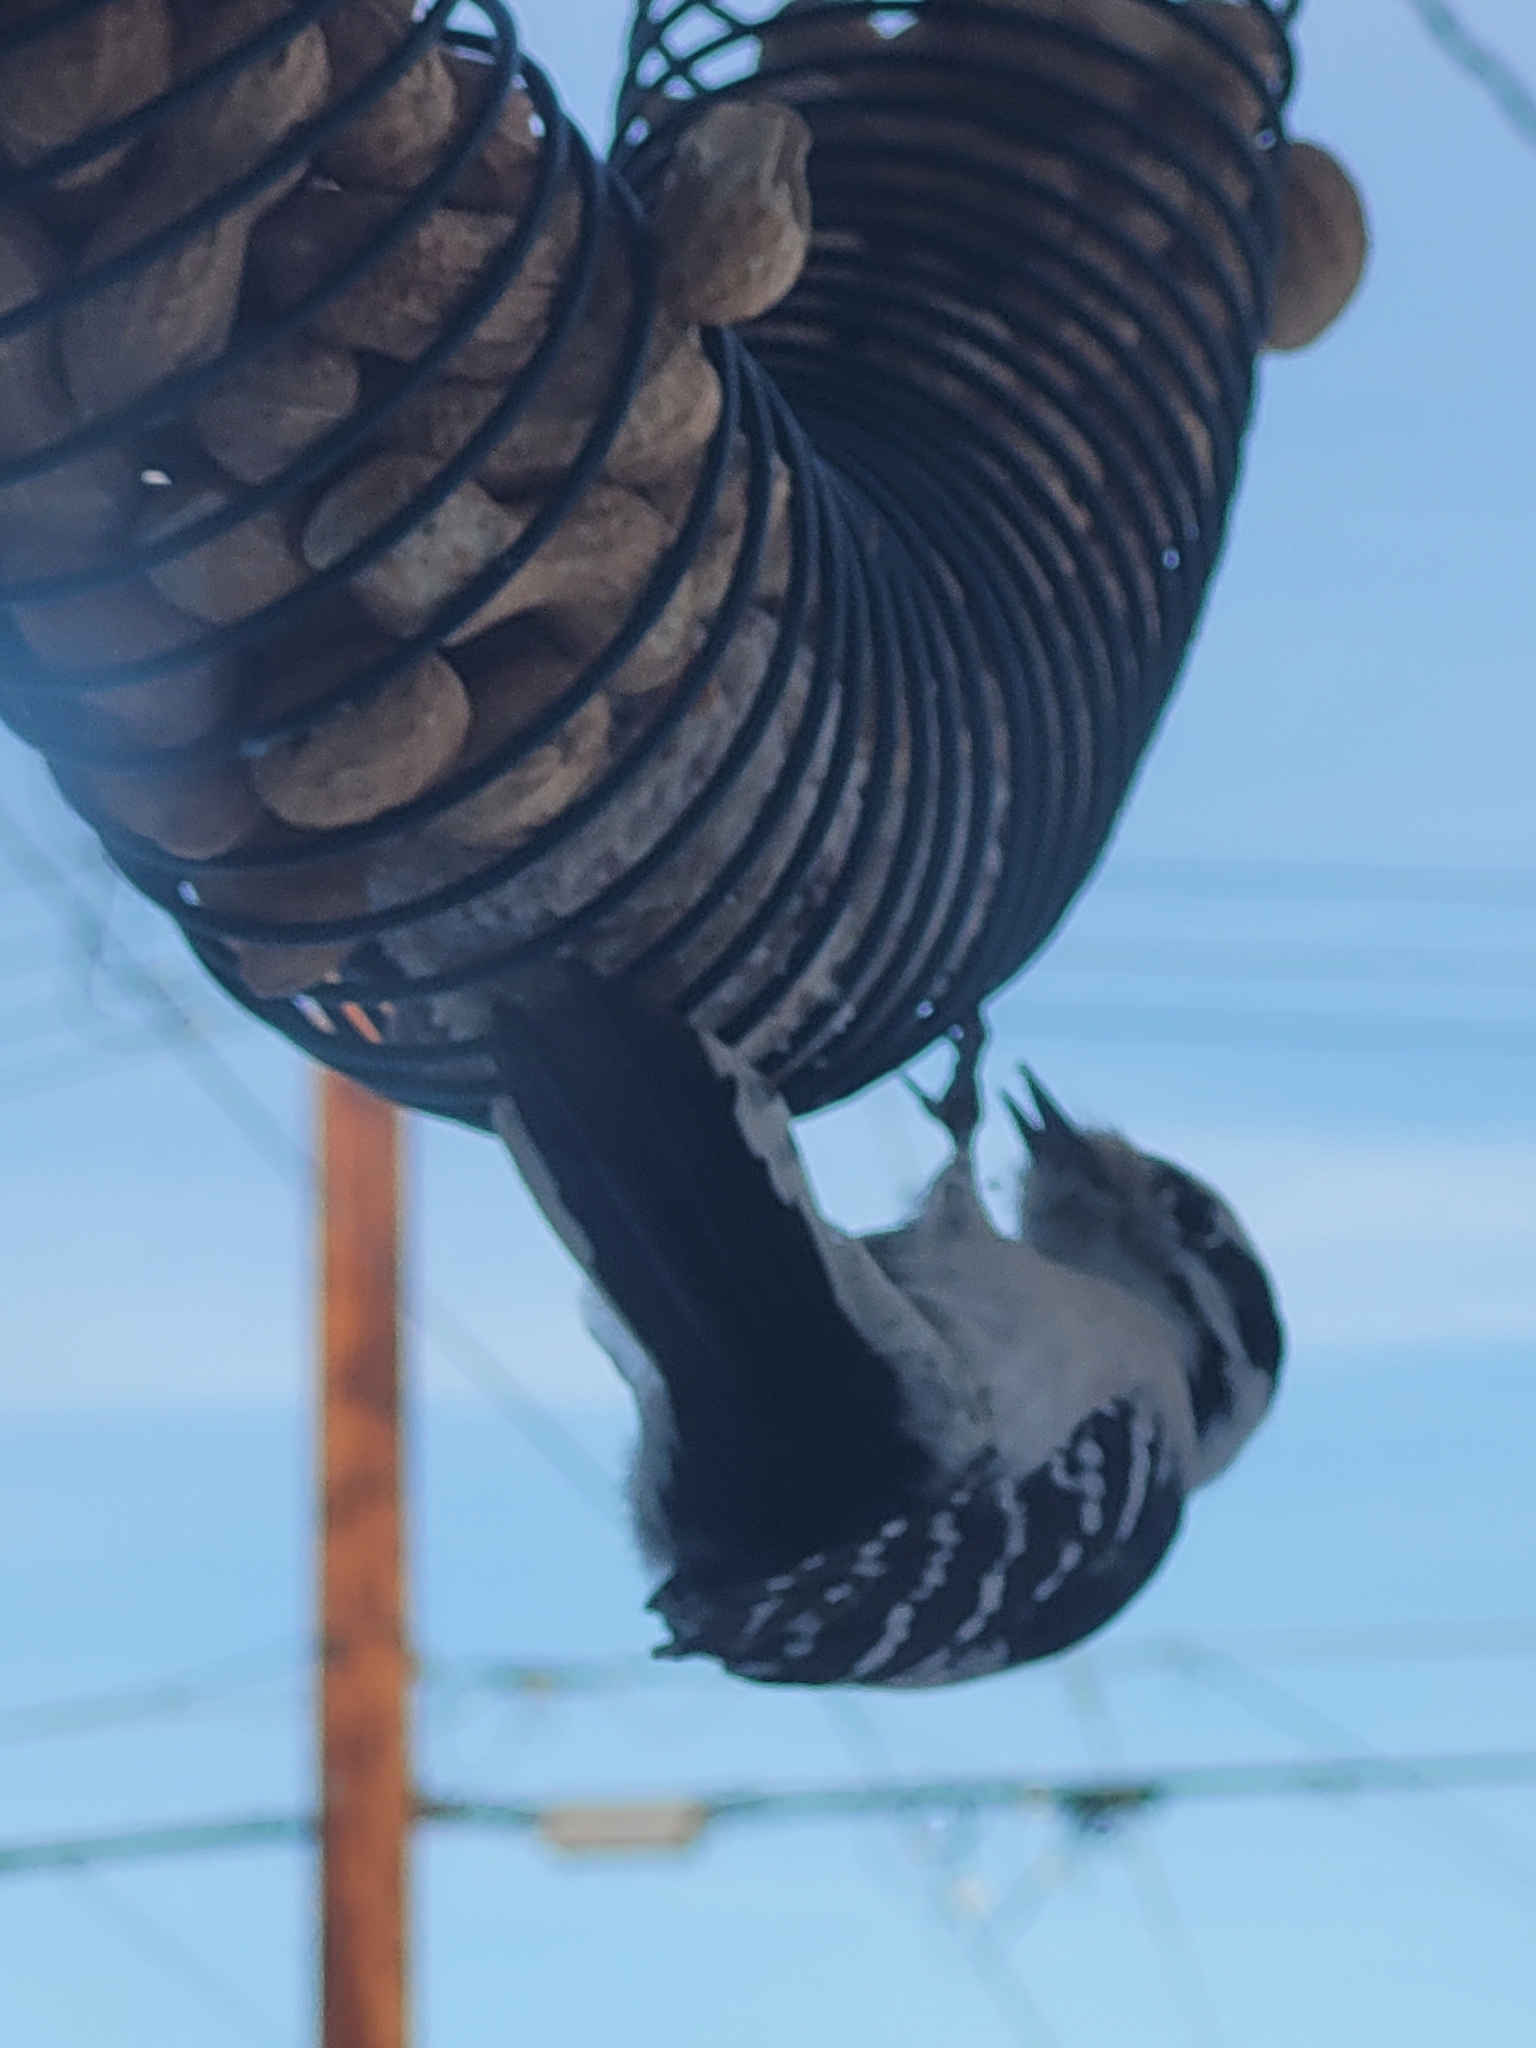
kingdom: Animalia
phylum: Chordata
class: Aves
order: Piciformes
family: Picidae
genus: Dryobates
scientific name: Dryobates pubescens
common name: Downy woodpecker
